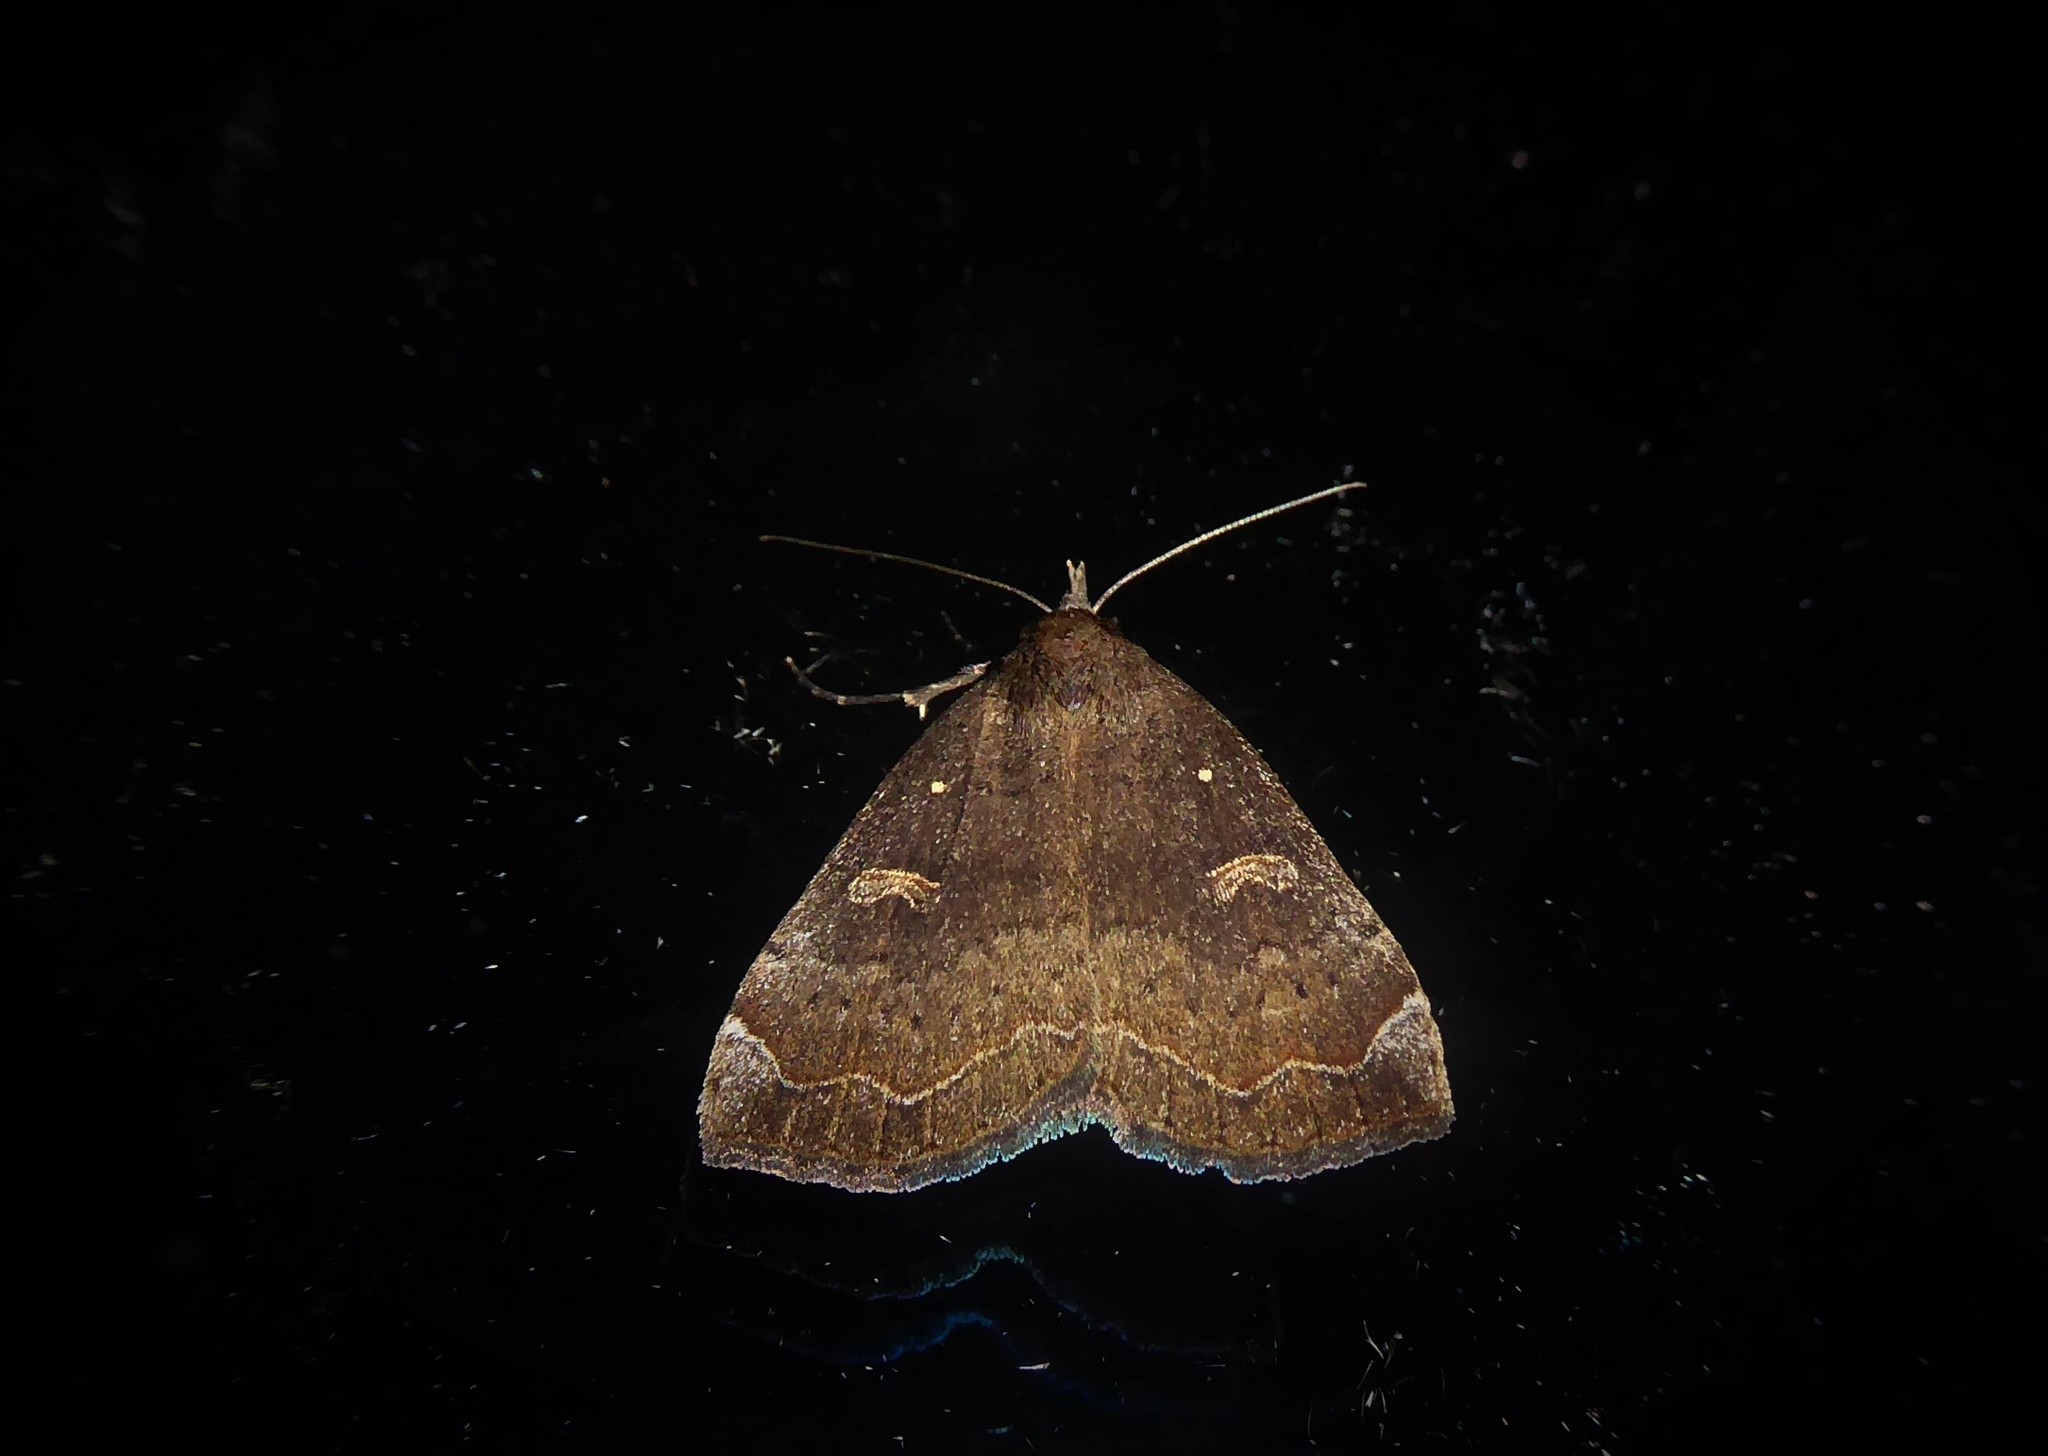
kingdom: Animalia
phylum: Arthropoda
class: Insecta
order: Lepidoptera
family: Erebidae
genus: Rhapsa
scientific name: Rhapsa scotosialis
